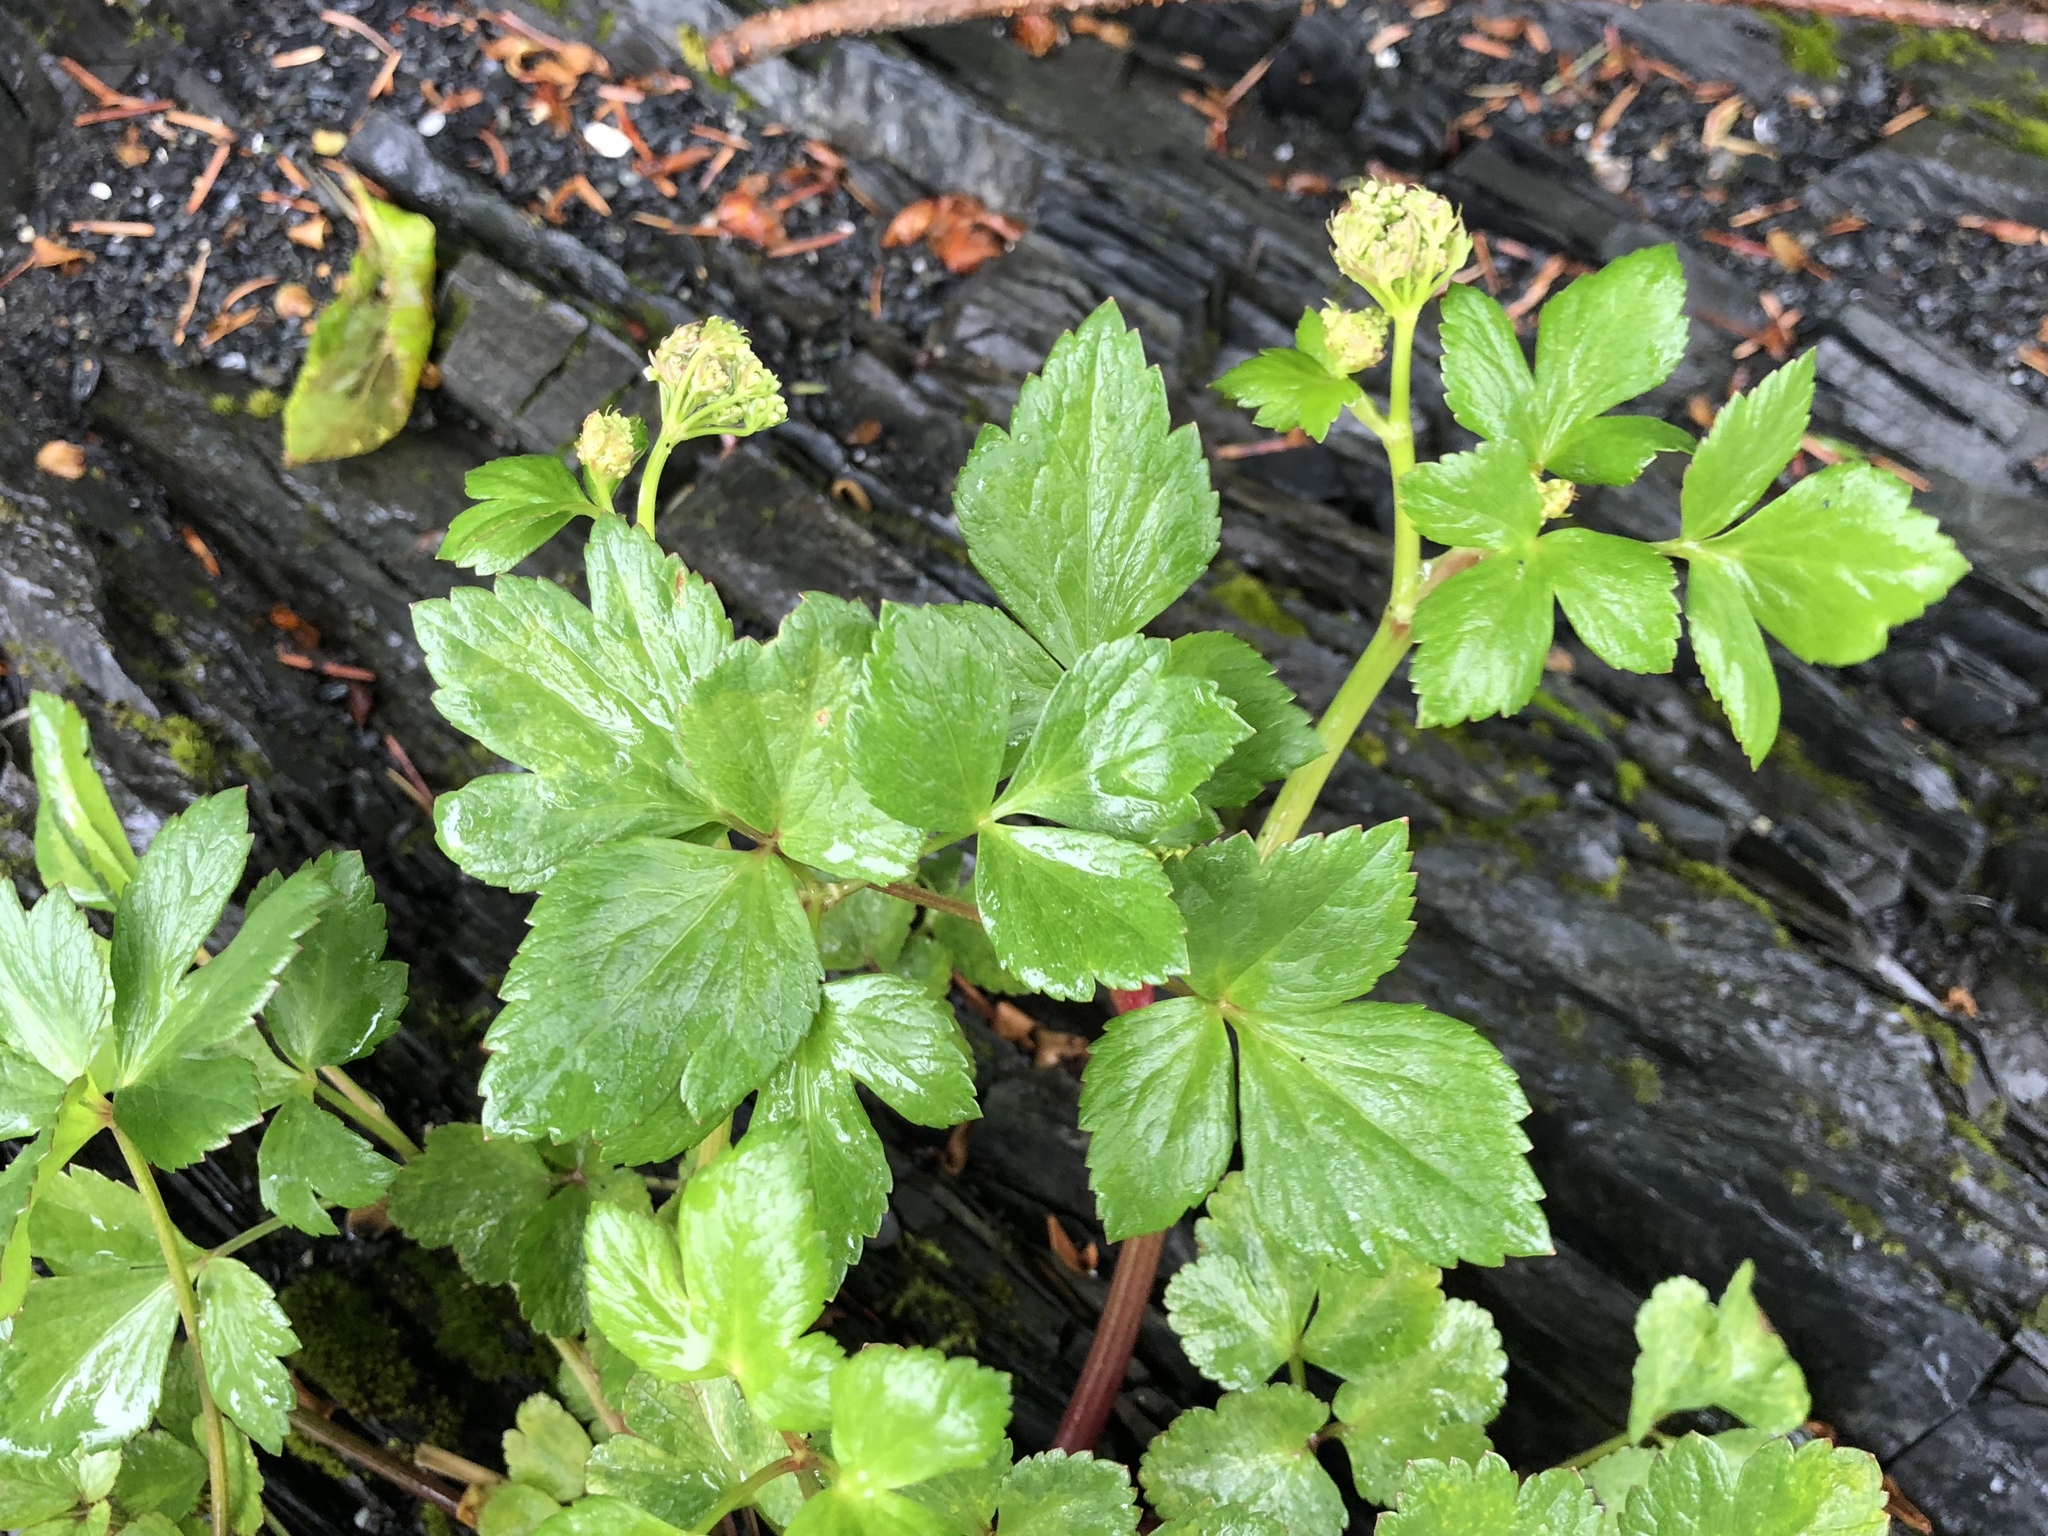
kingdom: Plantae
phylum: Tracheophyta
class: Magnoliopsida
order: Apiales
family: Apiaceae
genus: Ligusticum
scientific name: Ligusticum scothicum
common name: Beach lovage
